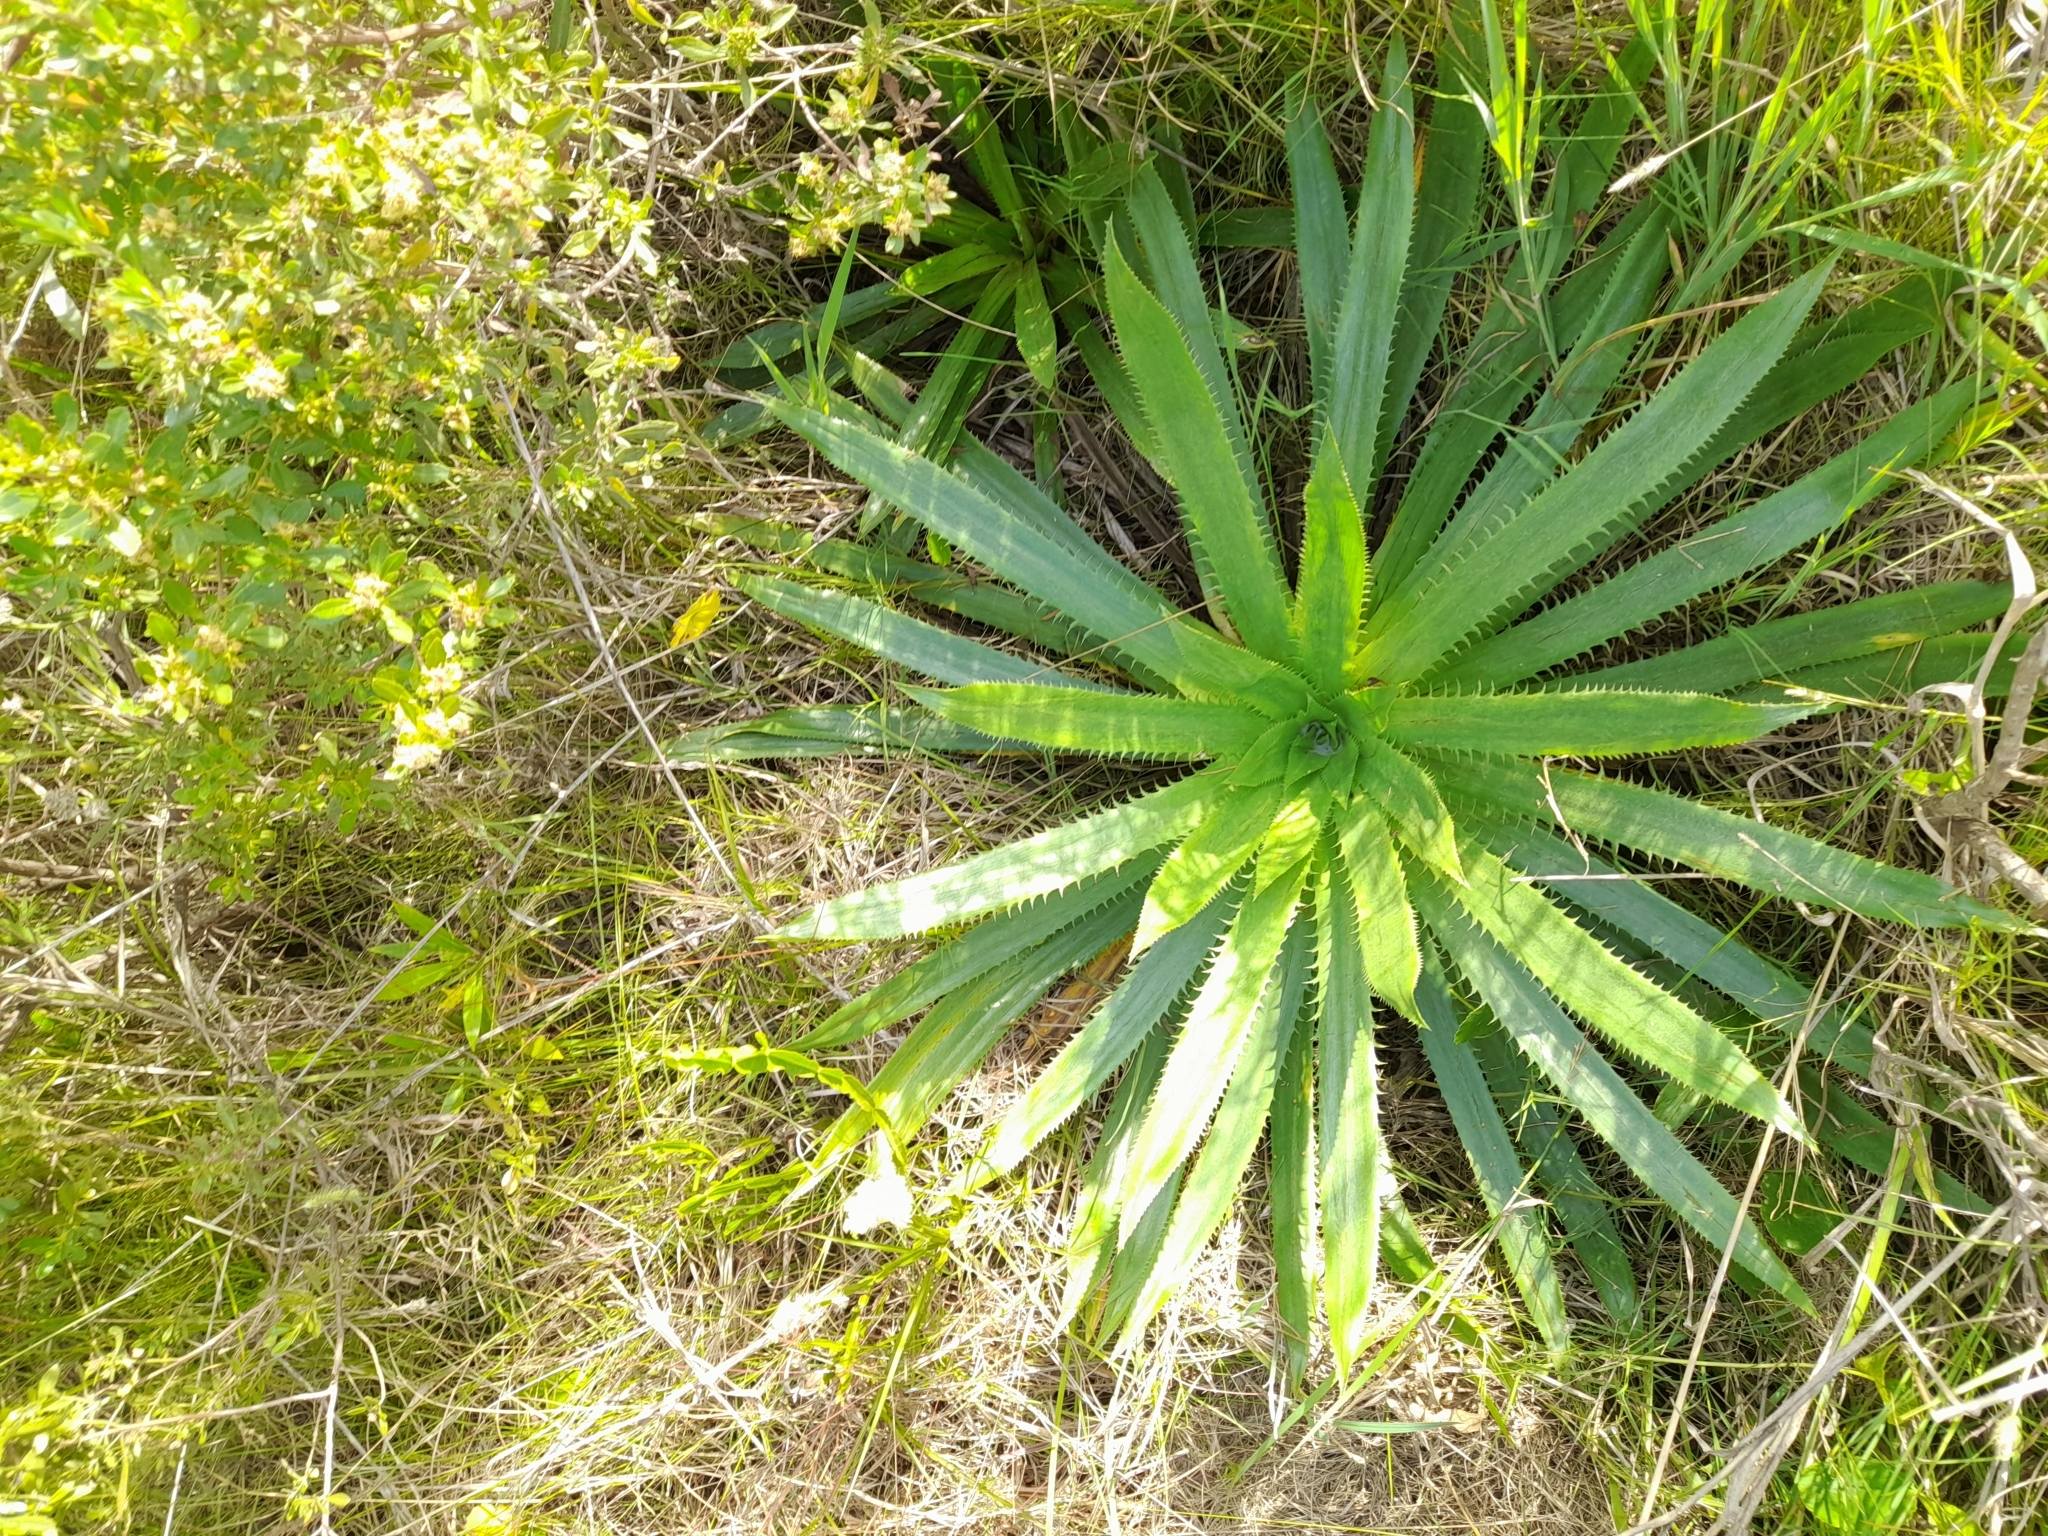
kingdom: Plantae
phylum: Tracheophyta
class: Magnoliopsida
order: Apiales
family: Apiaceae
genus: Eryngium
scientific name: Eryngium elegans
